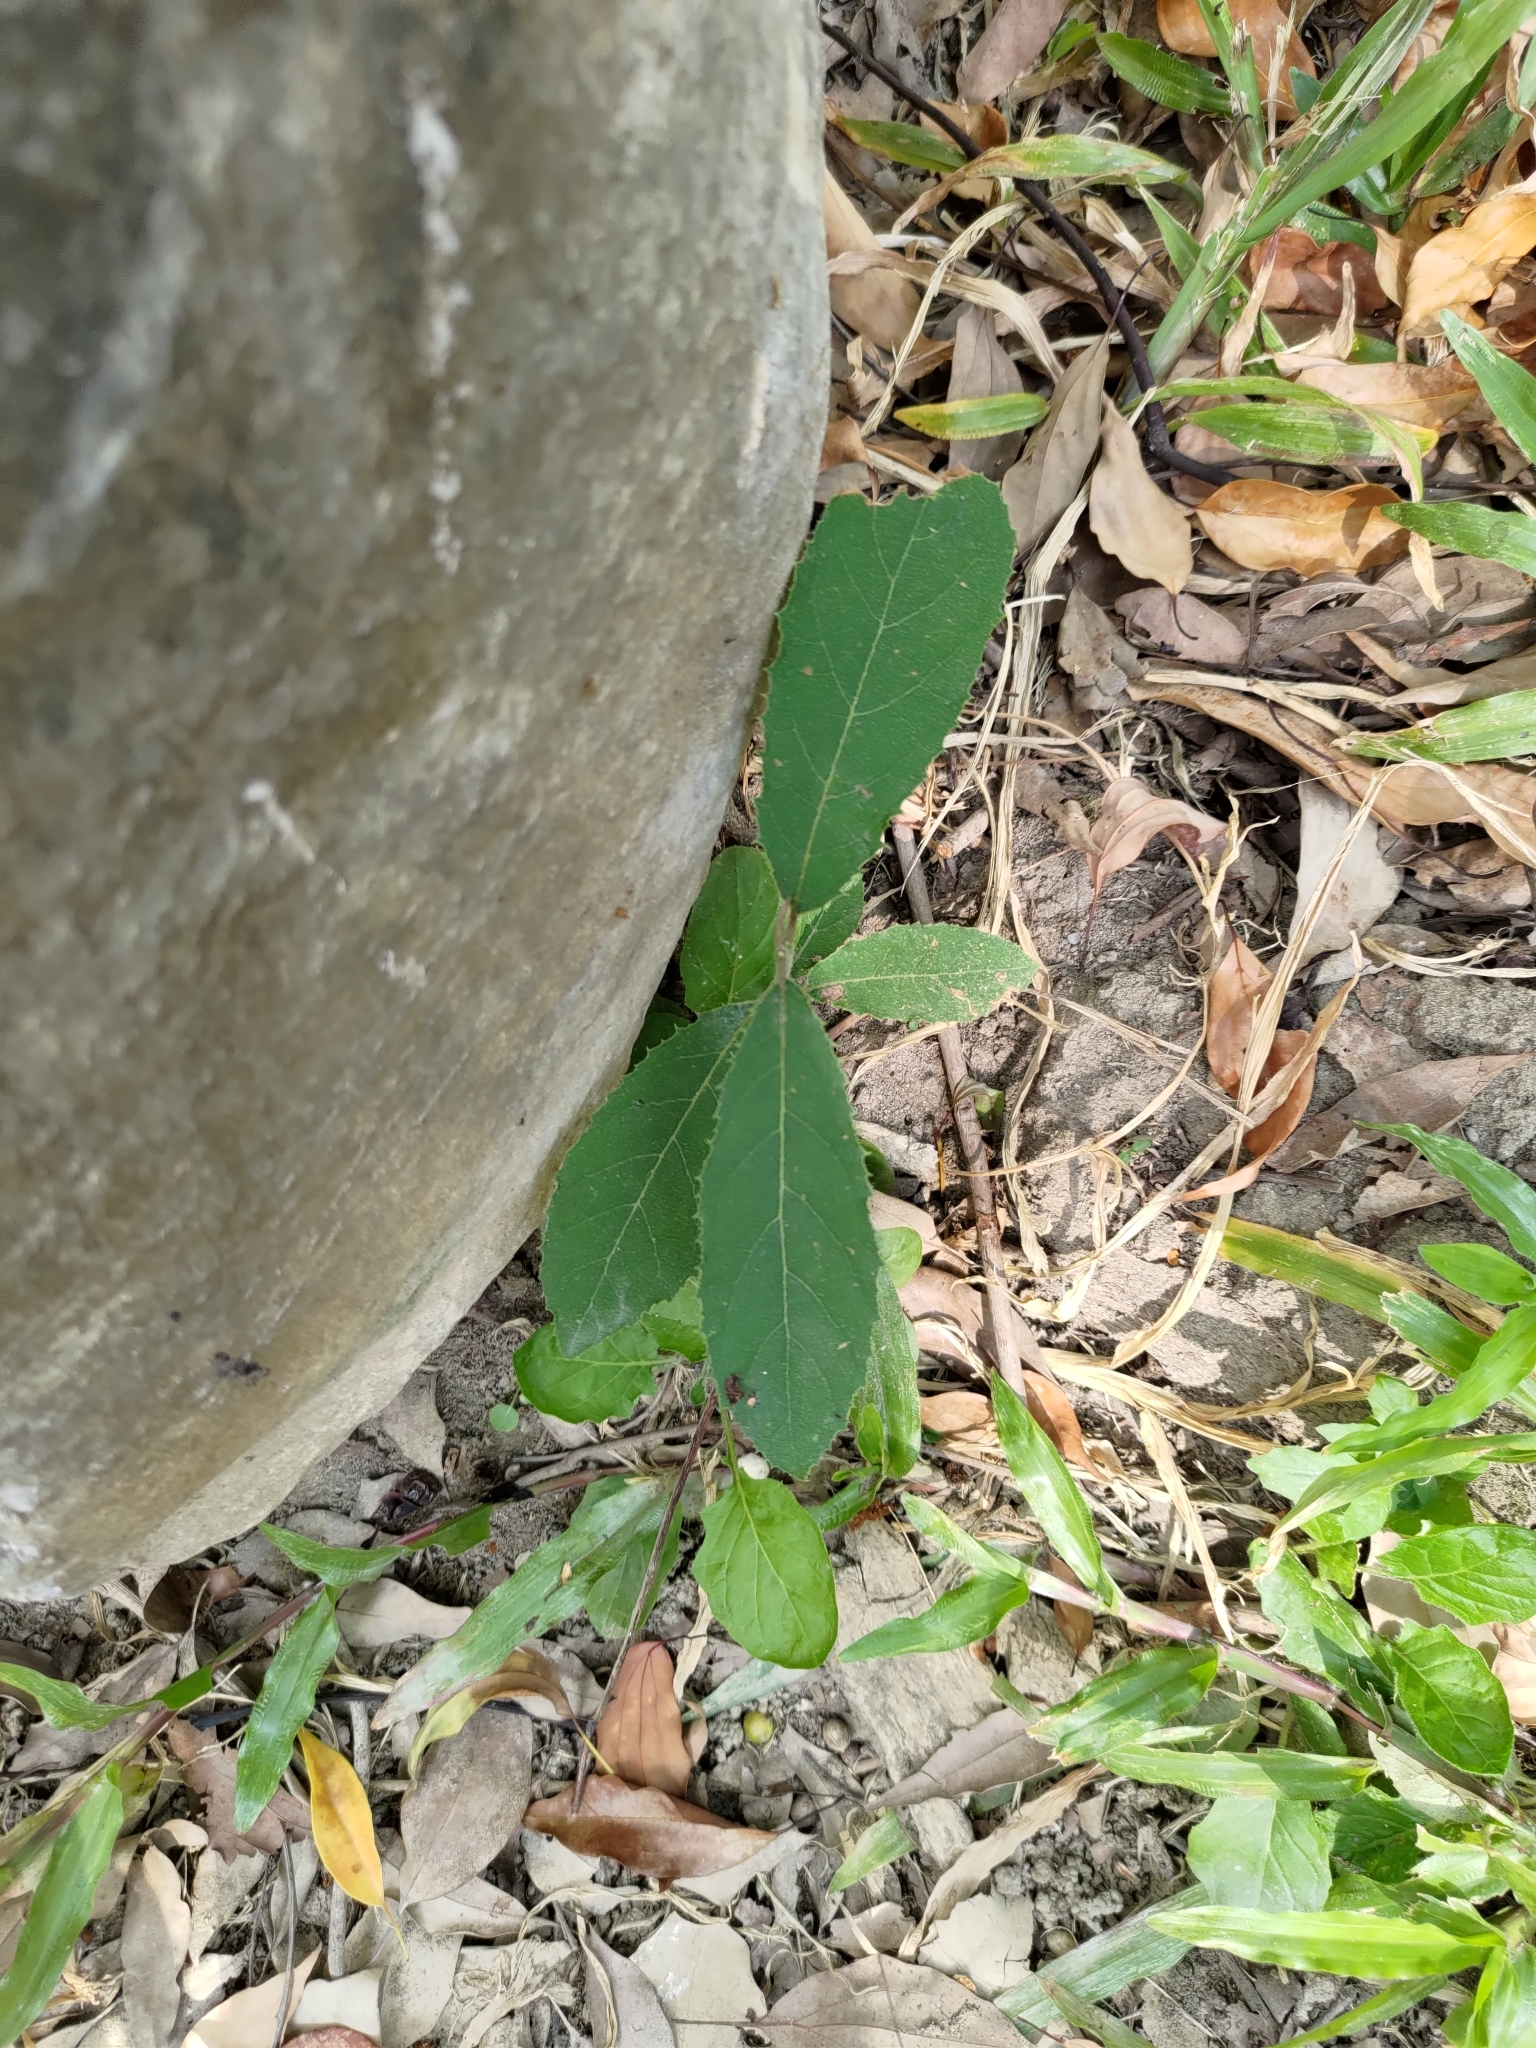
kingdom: Plantae
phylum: Tracheophyta
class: Magnoliopsida
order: Boraginales
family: Ehretiaceae
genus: Ehretia
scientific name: Ehretia acuminata
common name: Kodo wood
